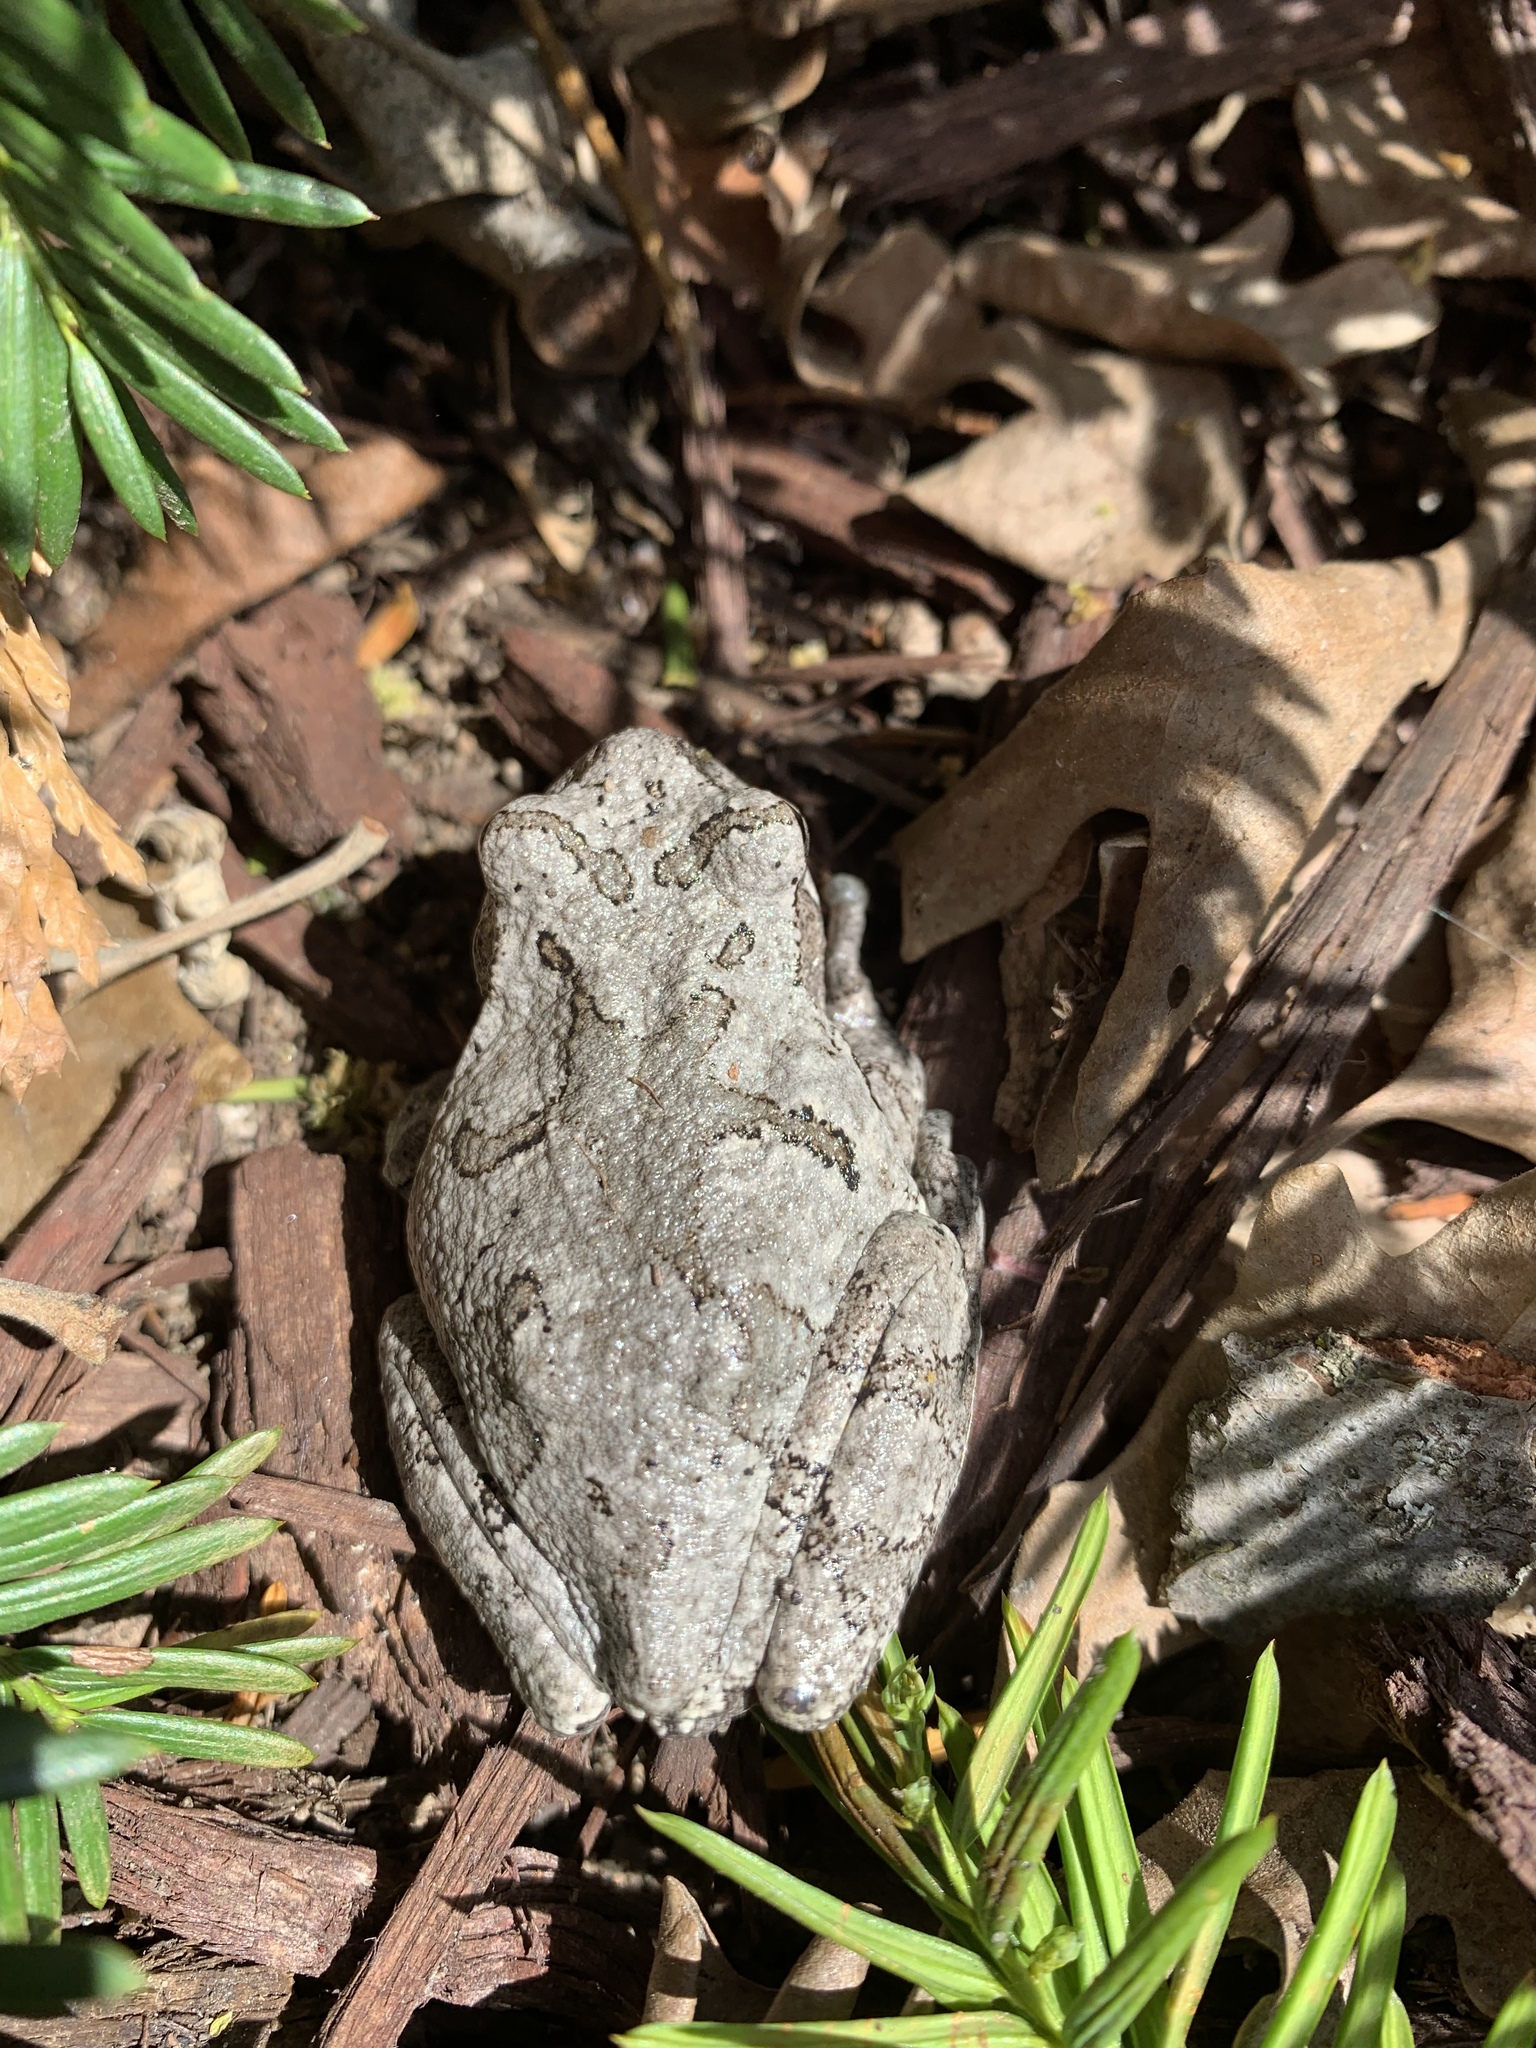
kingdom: Animalia
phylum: Chordata
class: Amphibia
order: Anura
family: Hylidae
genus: Hyla
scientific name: Hyla
